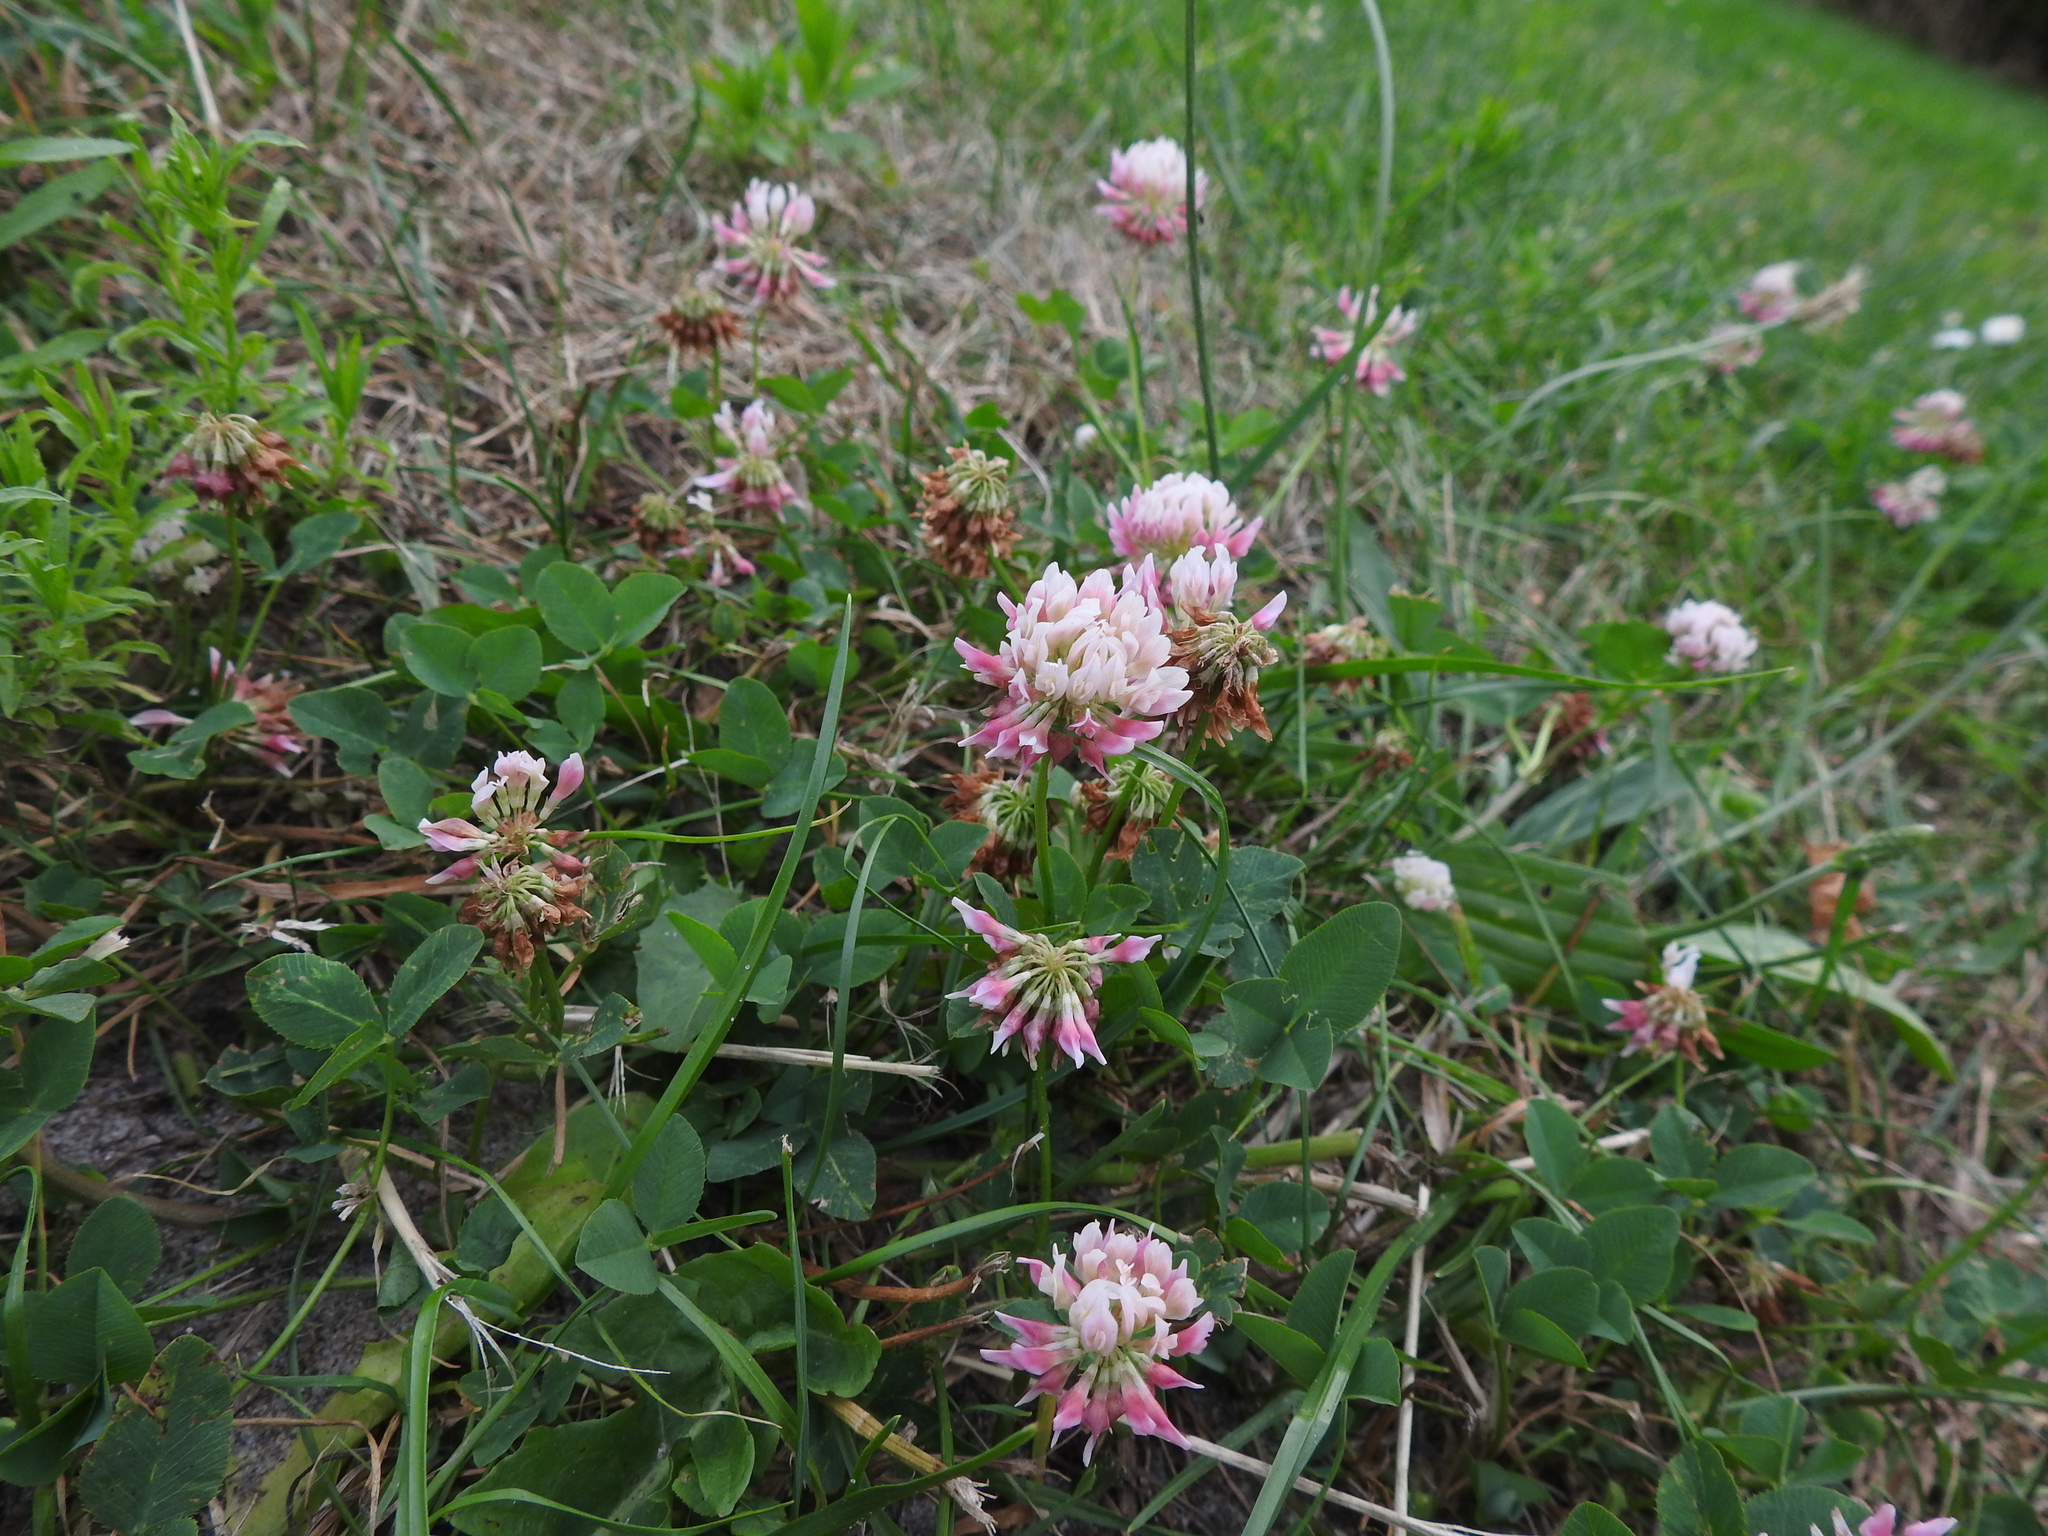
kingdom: Plantae
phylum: Tracheophyta
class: Magnoliopsida
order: Fabales
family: Fabaceae
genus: Trifolium
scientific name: Trifolium hybridum
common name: Alsike clover
